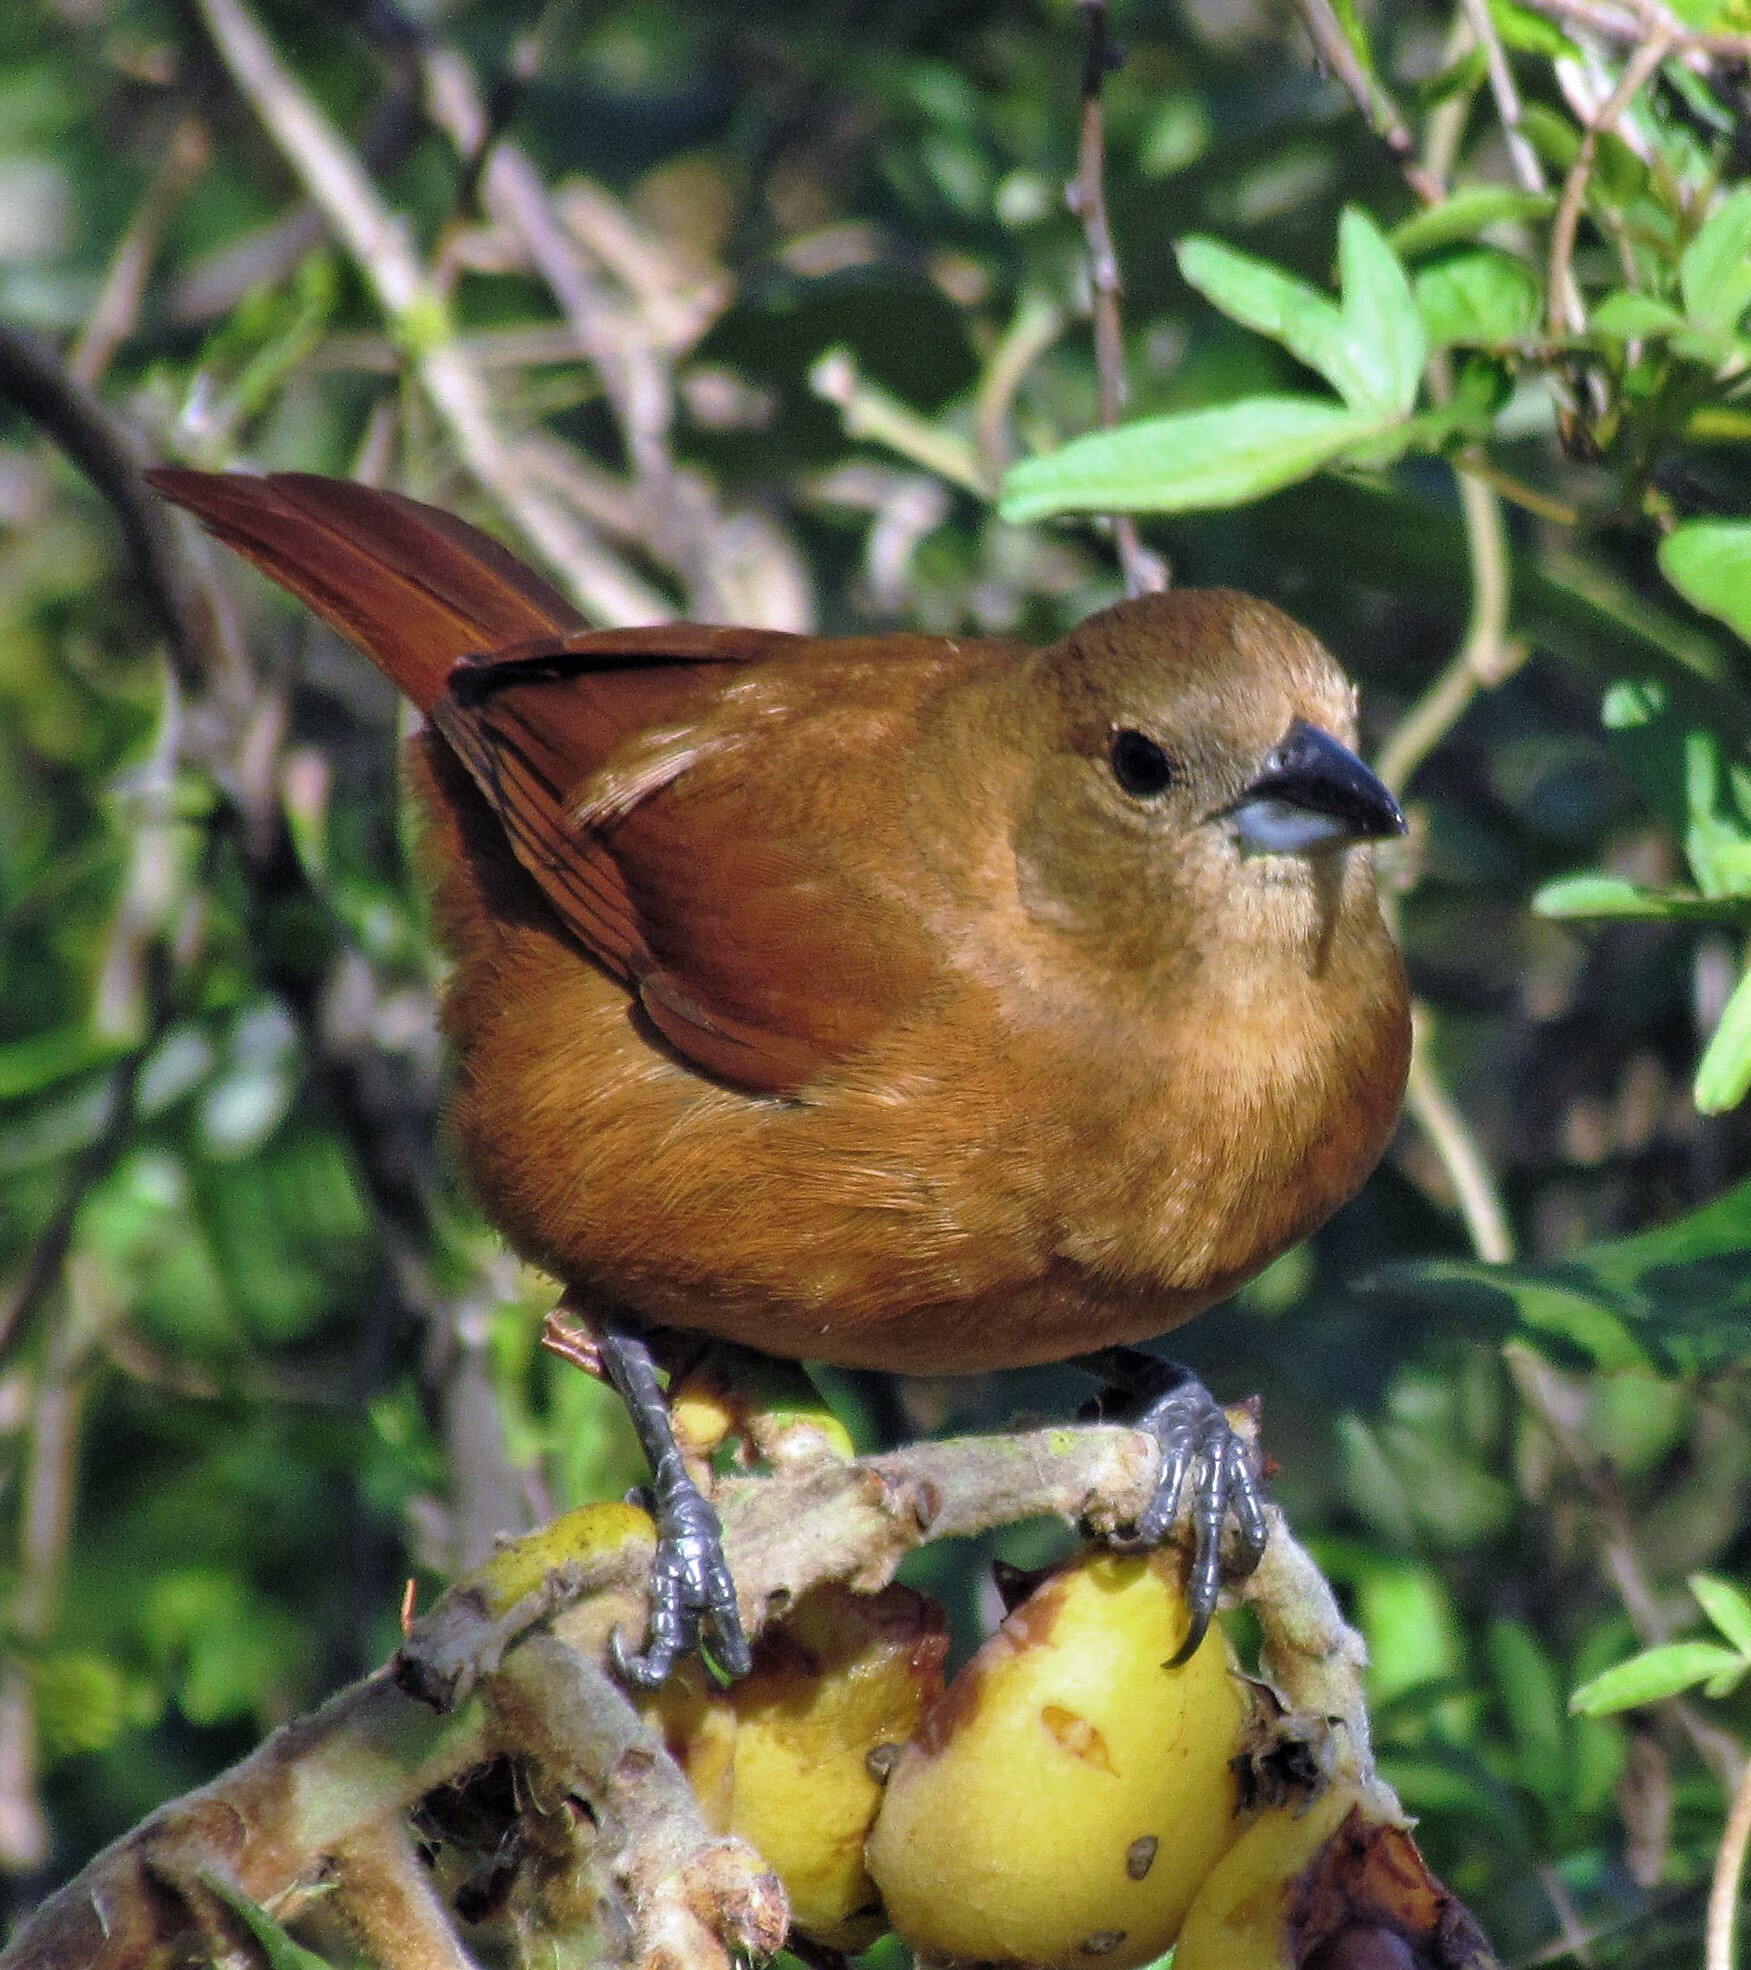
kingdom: Animalia
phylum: Chordata
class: Aves
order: Passeriformes
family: Thraupidae
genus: Tachyphonus
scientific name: Tachyphonus rufus
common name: White-lined tanager
